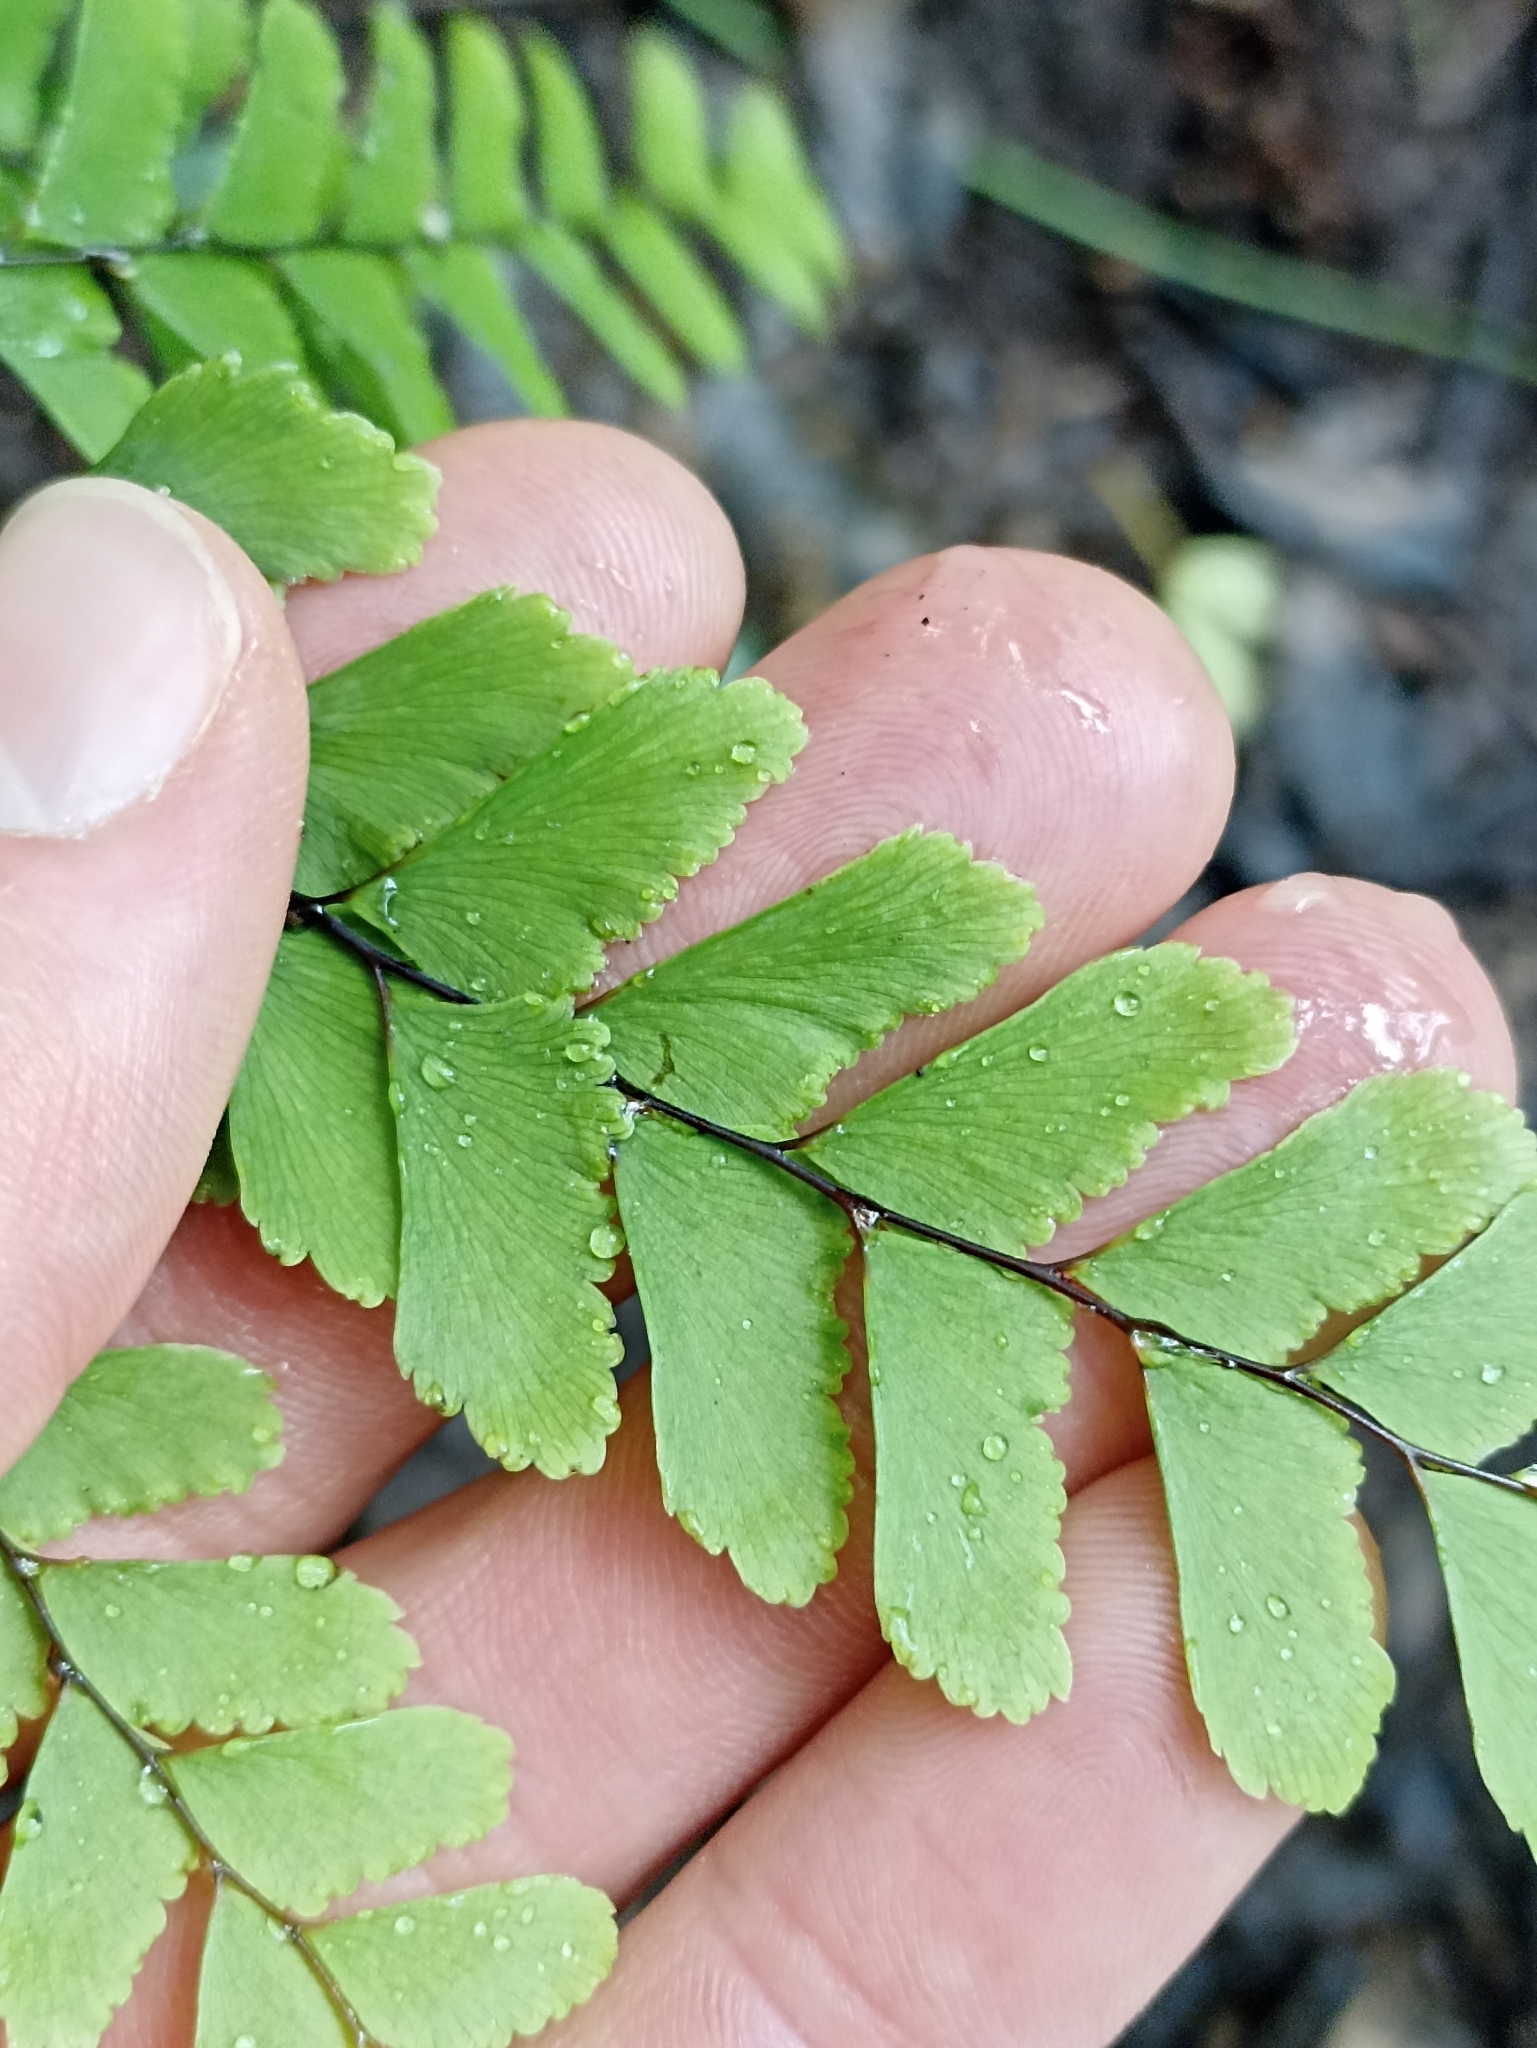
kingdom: Plantae
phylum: Tracheophyta
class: Polypodiopsida
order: Polypodiales
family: Pteridaceae
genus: Adiantum
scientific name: Adiantum cunninghamii
